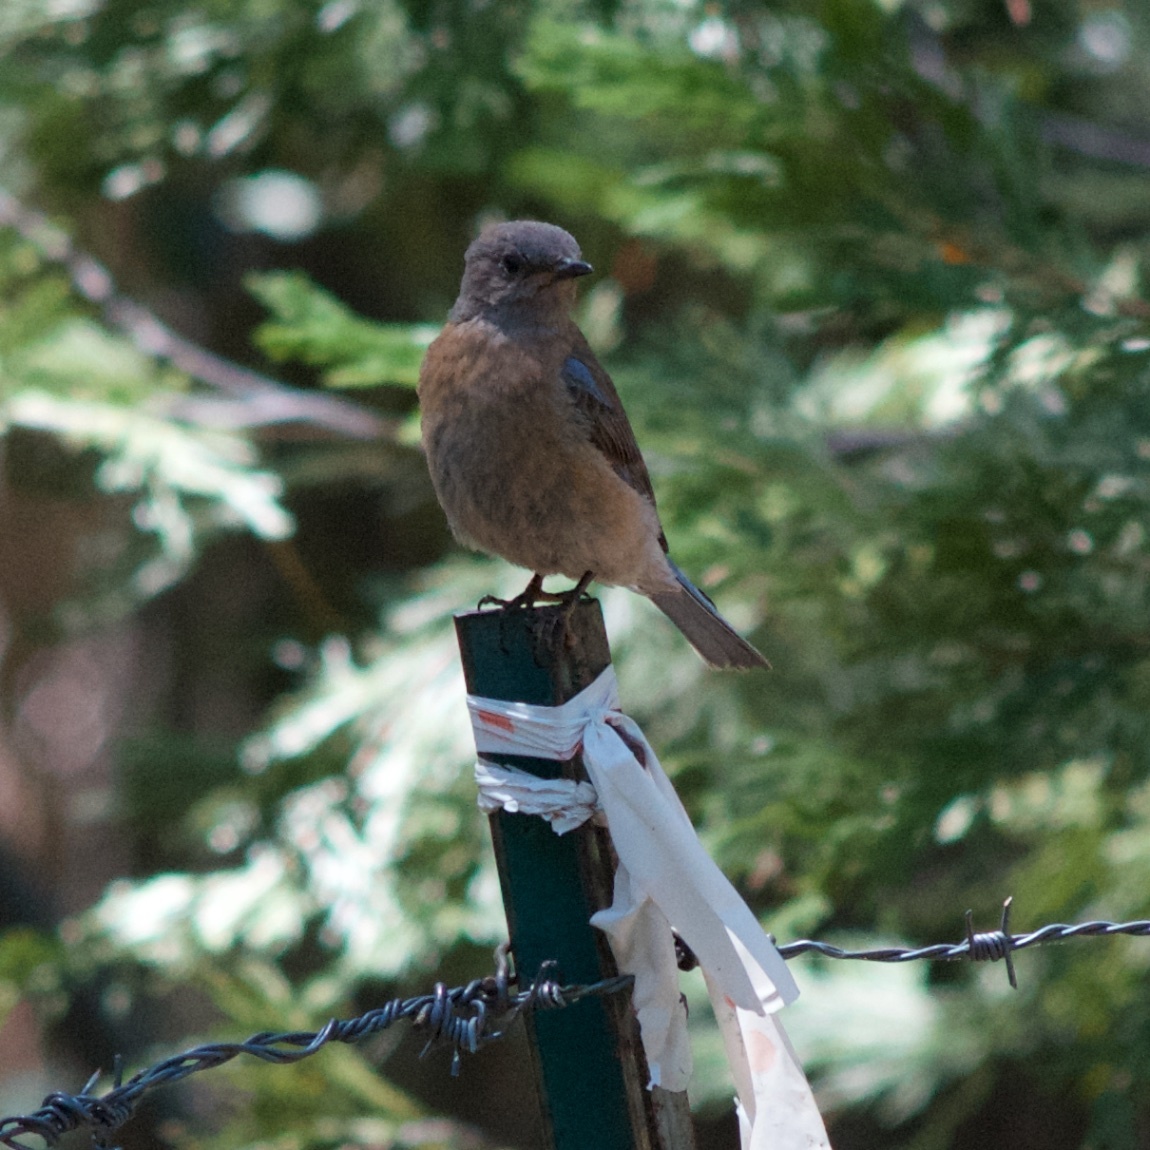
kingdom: Animalia
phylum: Chordata
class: Aves
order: Passeriformes
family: Turdidae
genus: Sialia
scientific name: Sialia mexicana
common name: Western bluebird
